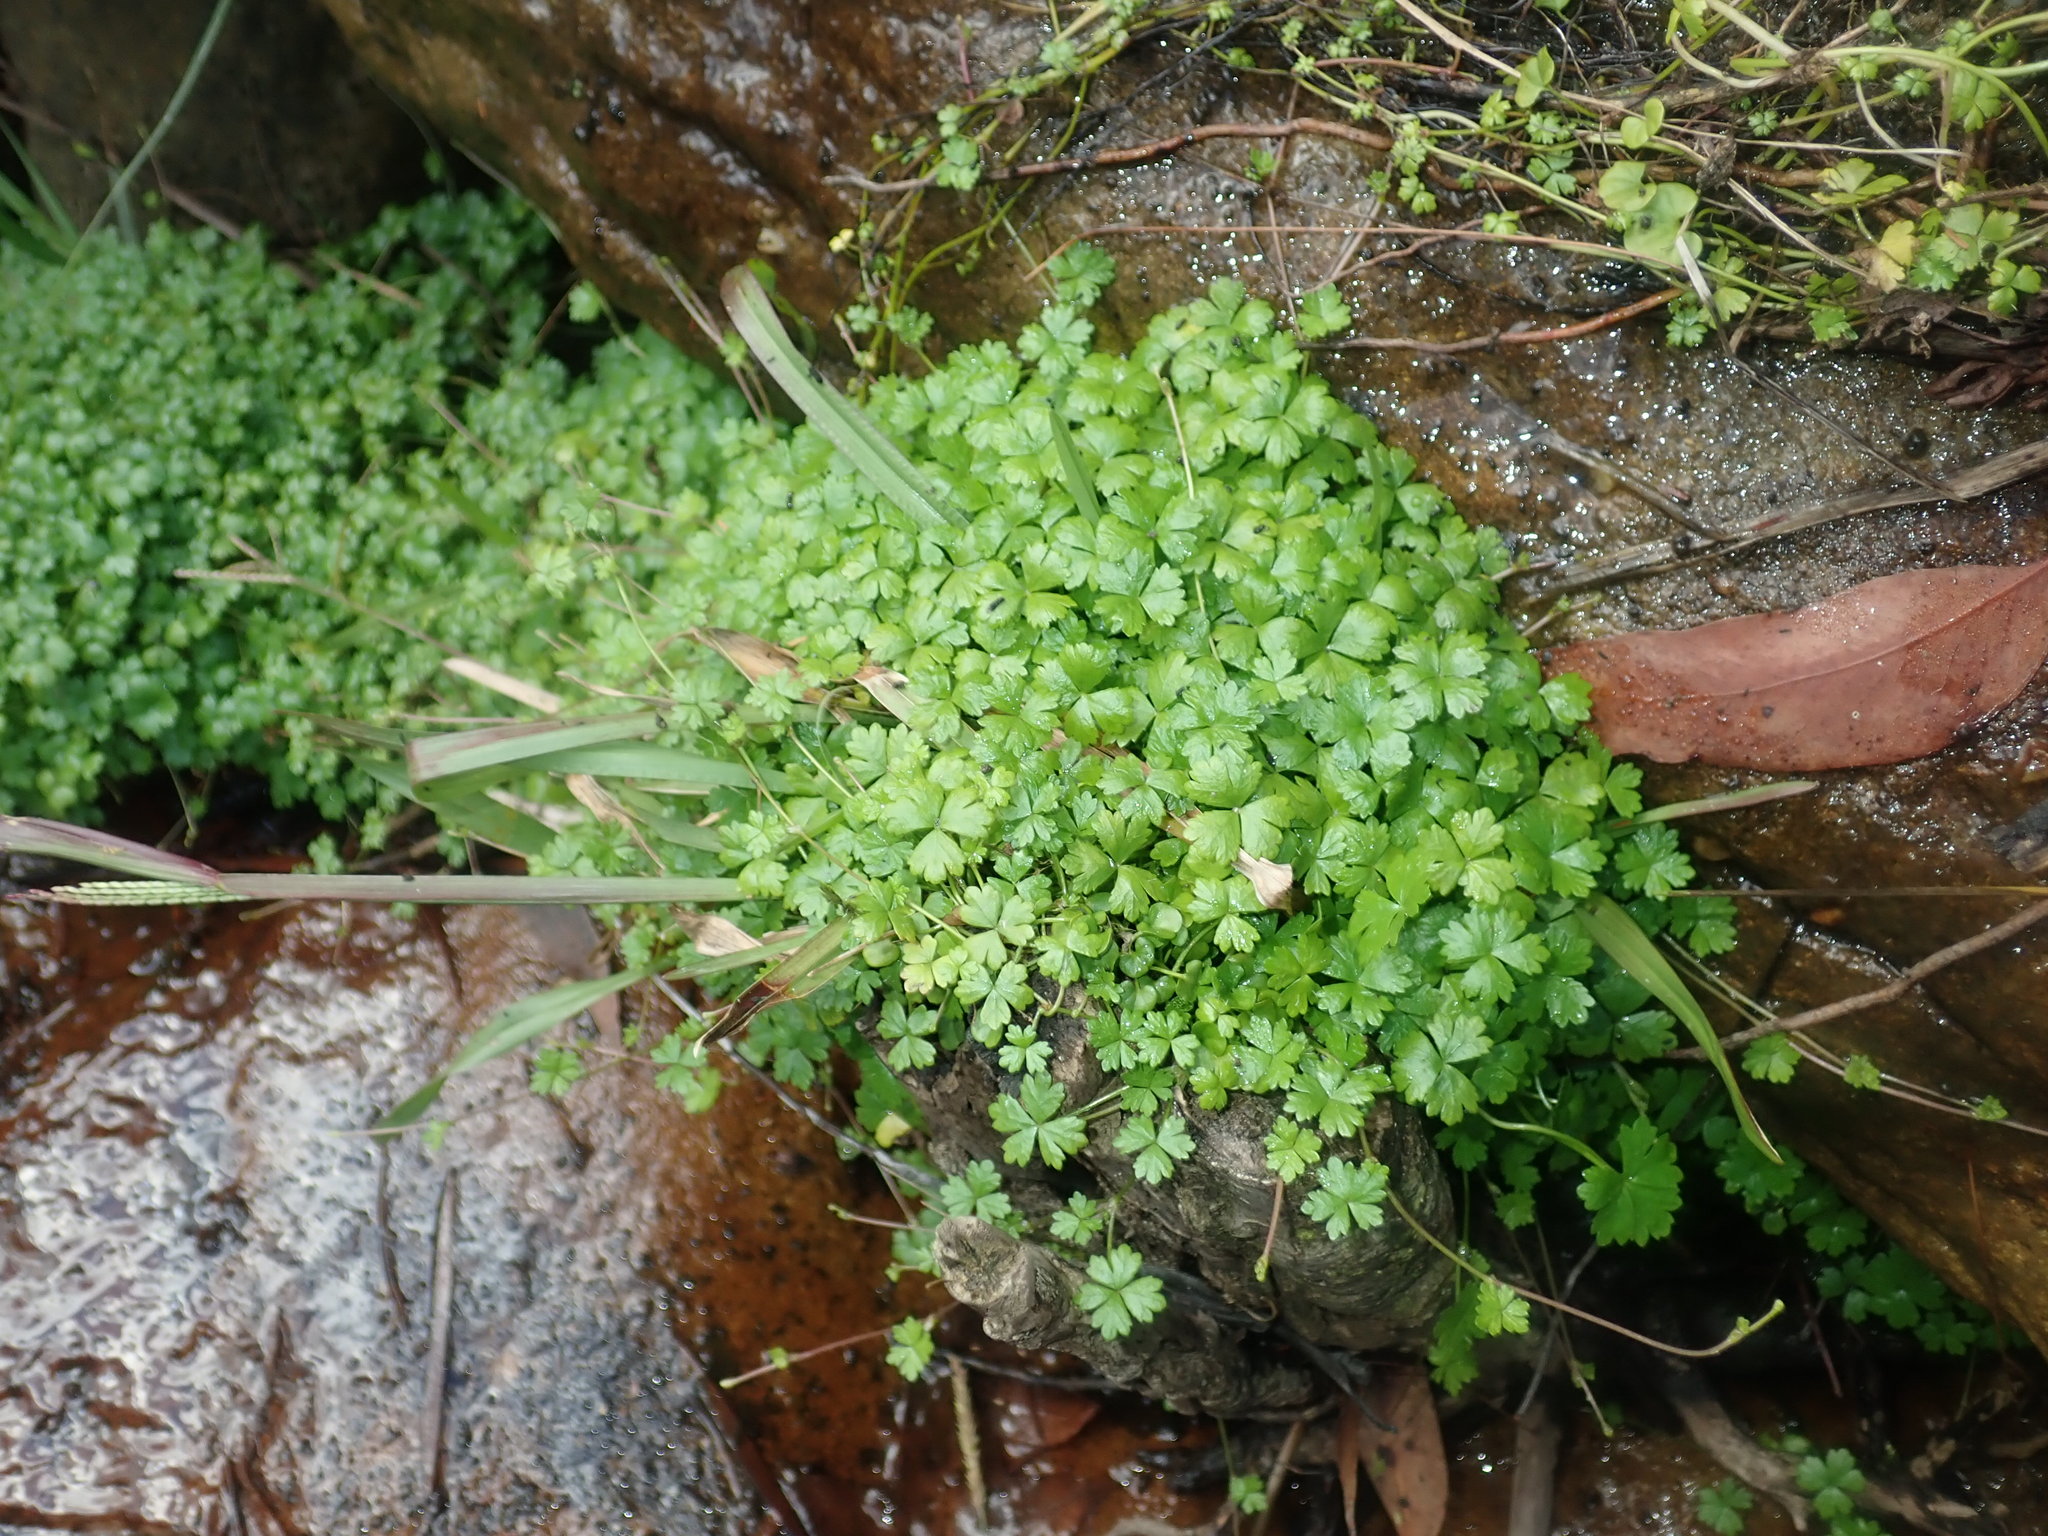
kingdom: Plantae
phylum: Tracheophyta
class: Magnoliopsida
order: Apiales
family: Araliaceae
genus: Hydrocotyle
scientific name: Hydrocotyle tripartita
